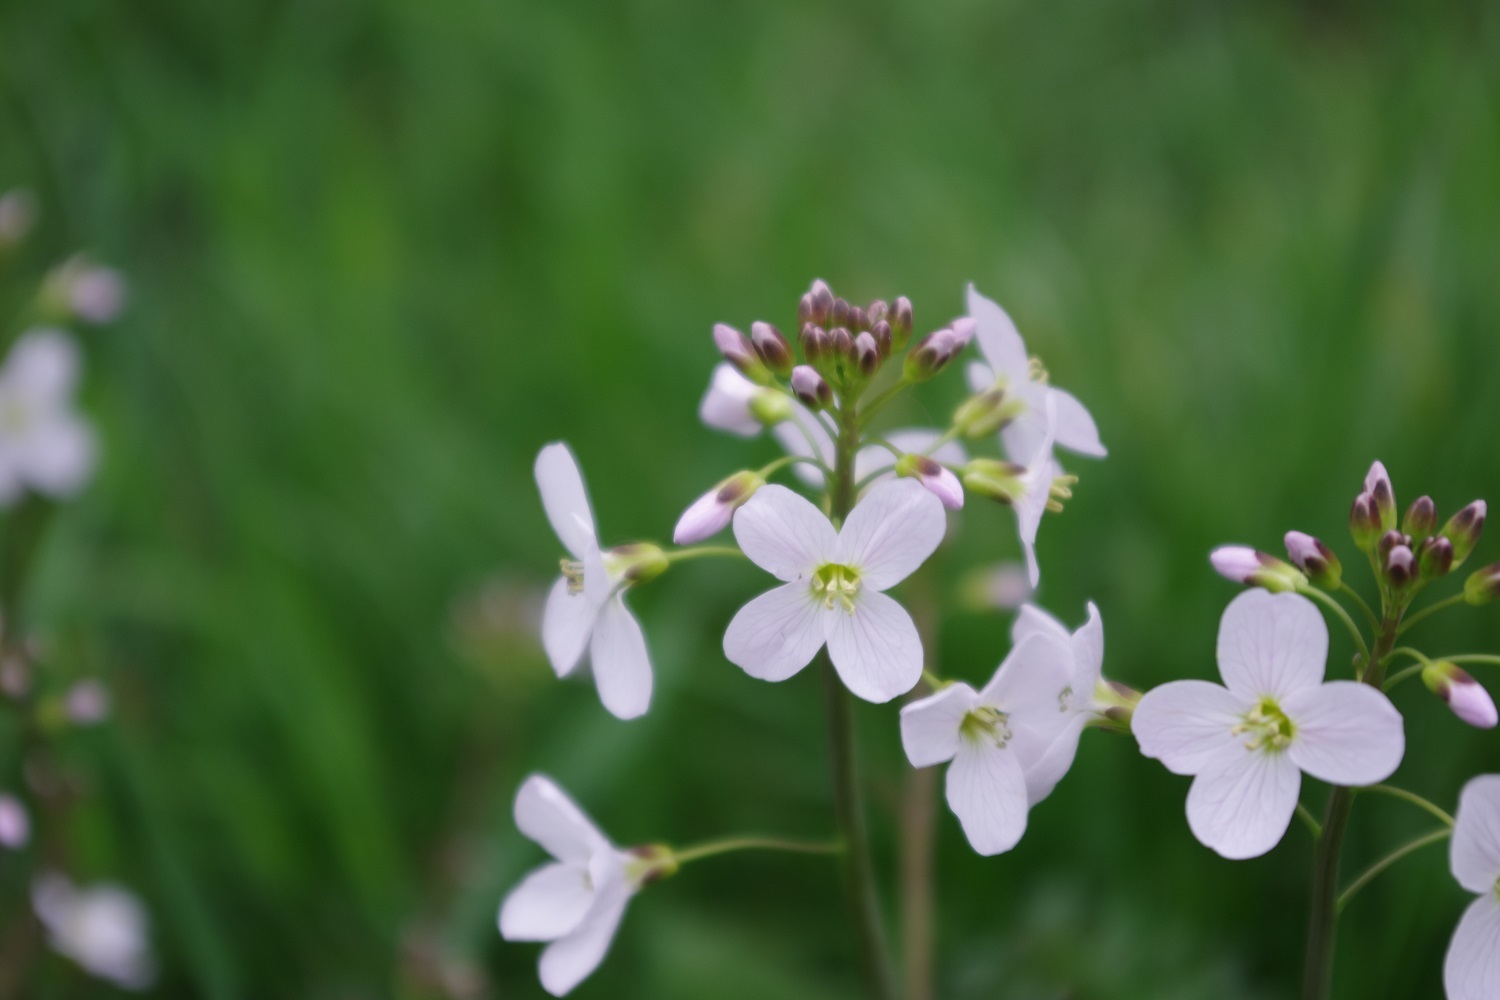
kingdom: Plantae
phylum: Tracheophyta
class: Magnoliopsida
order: Brassicales
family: Brassicaceae
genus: Cardamine
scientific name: Cardamine pratensis
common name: Cuckoo flower
